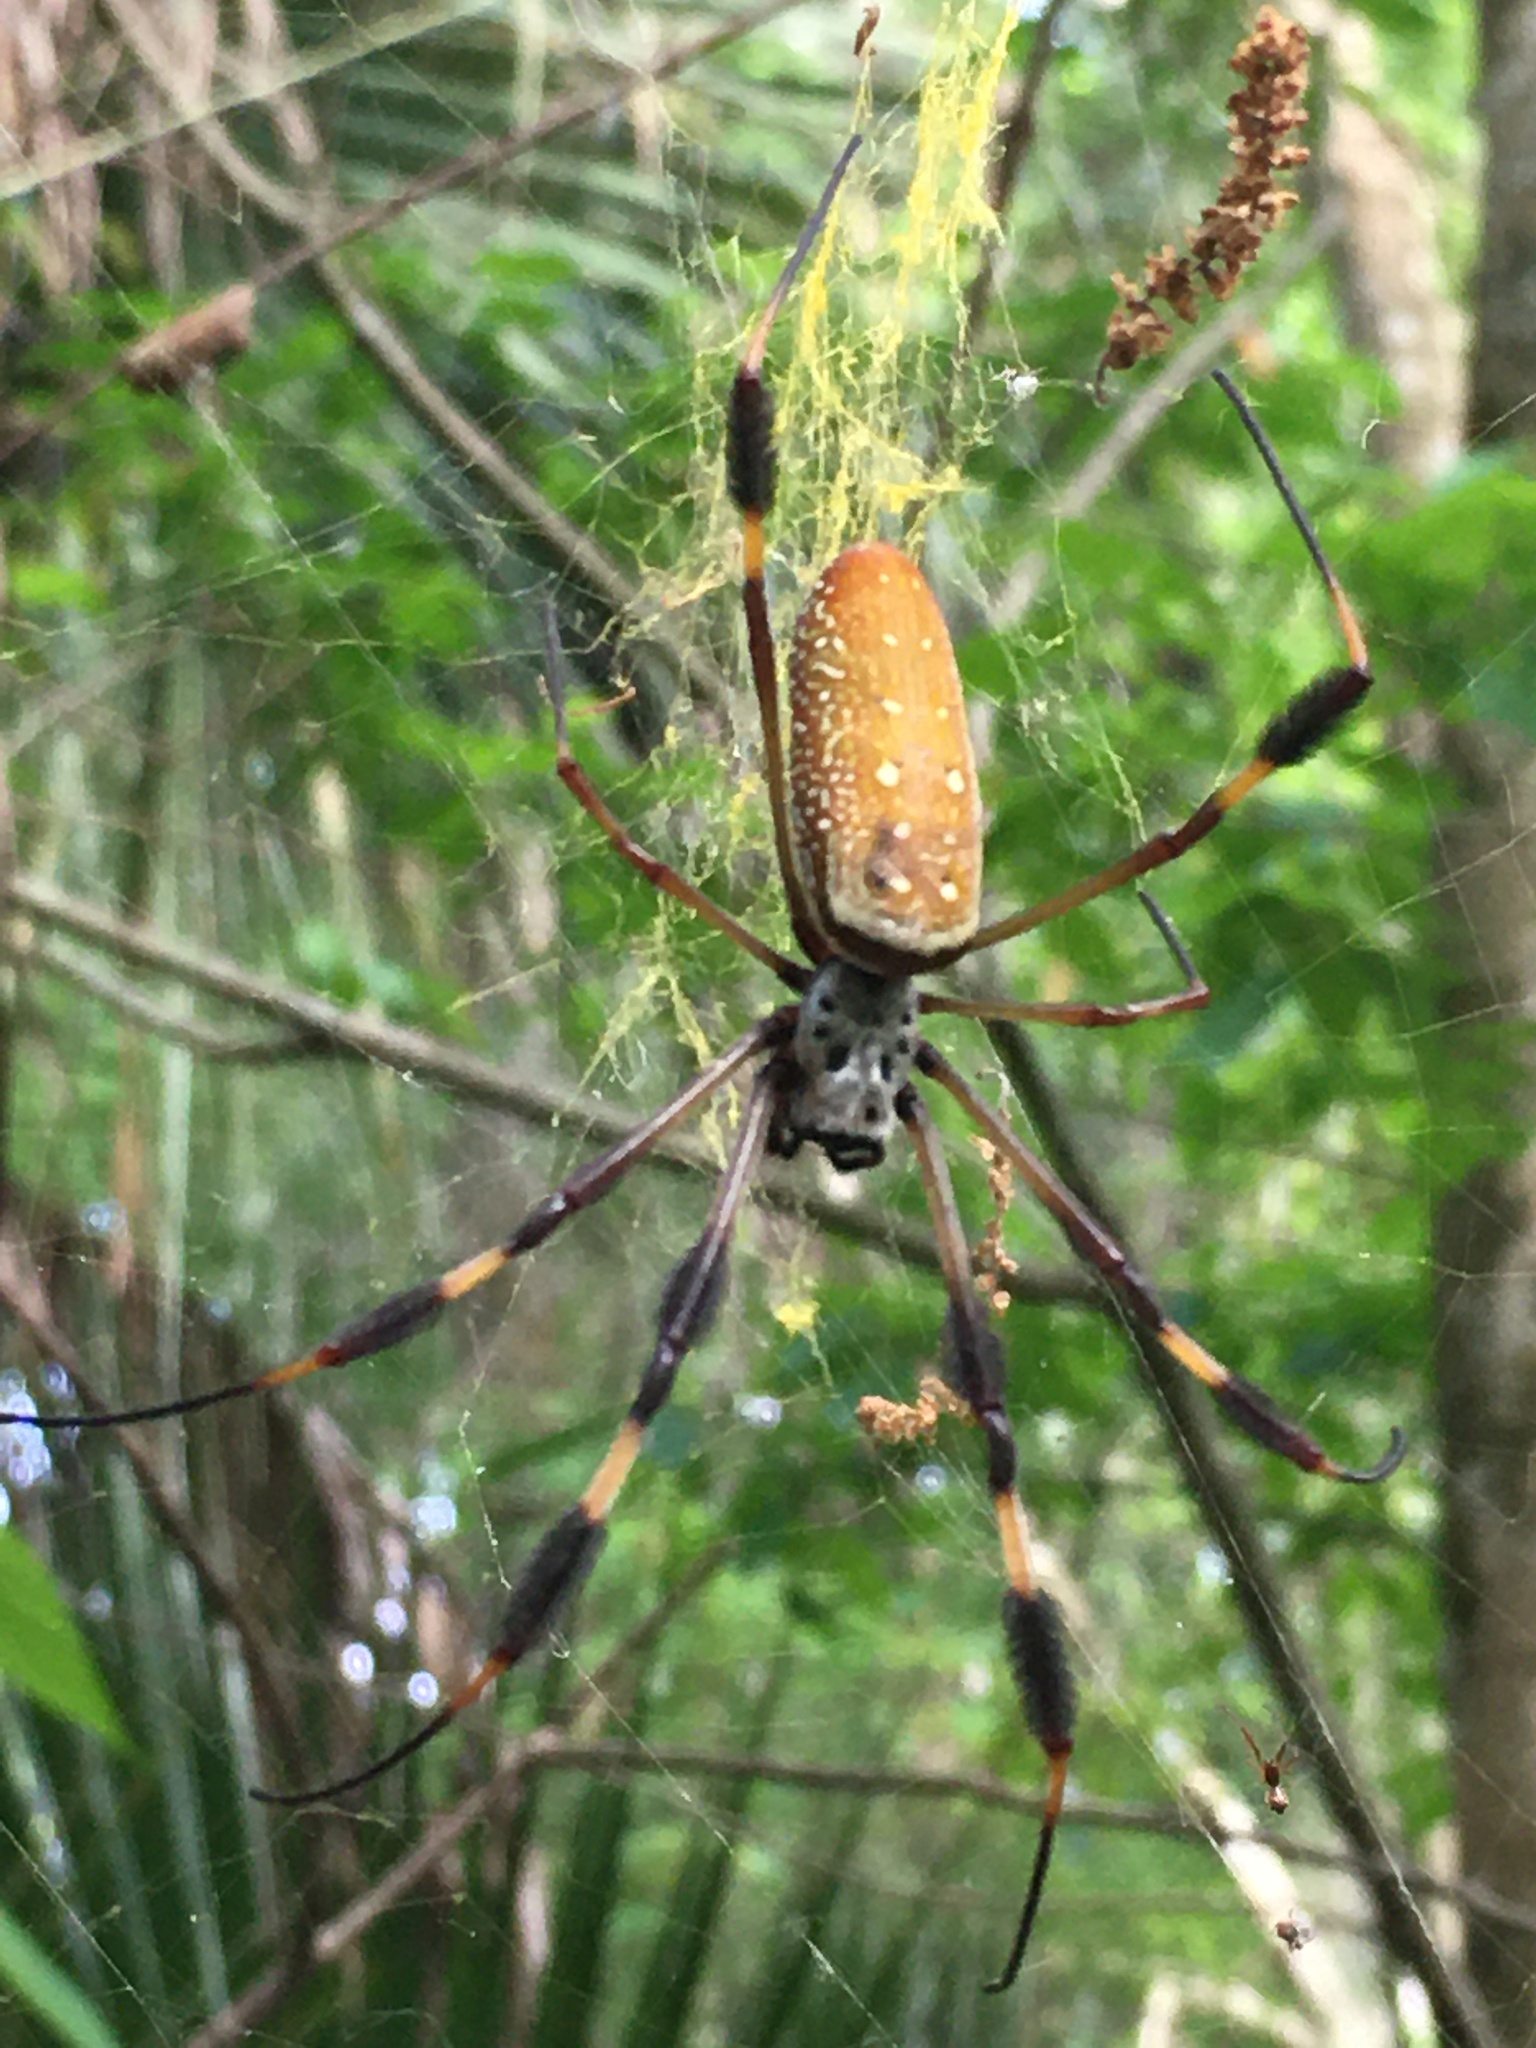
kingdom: Animalia
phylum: Arthropoda
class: Arachnida
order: Araneae
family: Araneidae
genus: Trichonephila
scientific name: Trichonephila clavipes
